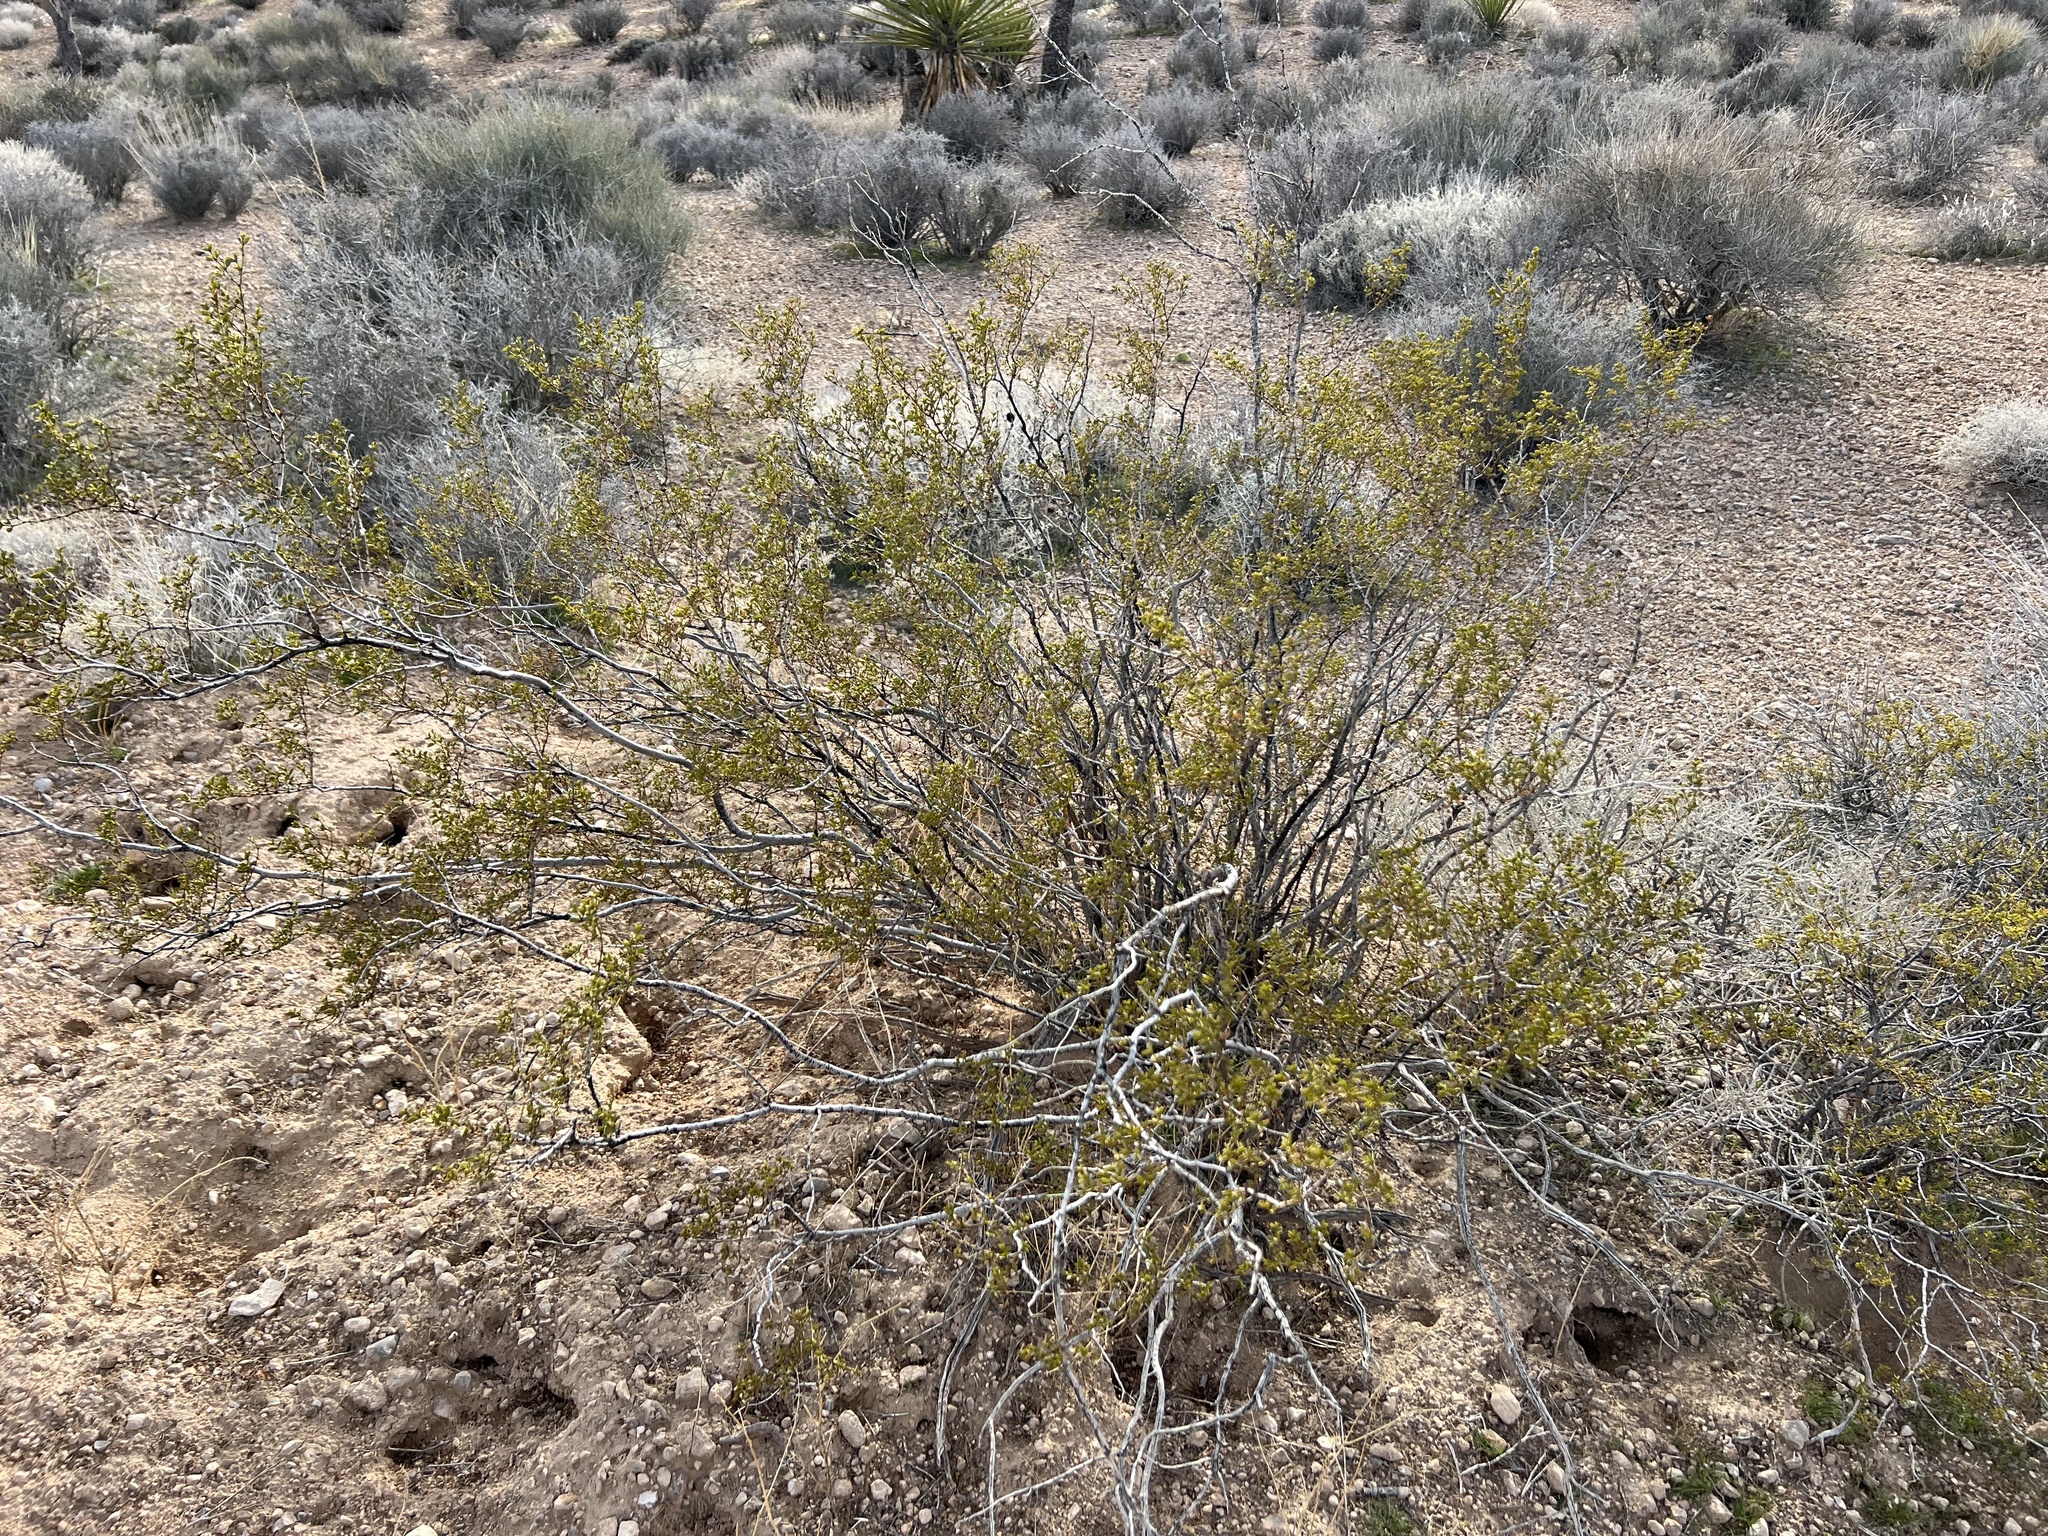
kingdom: Plantae
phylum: Tracheophyta
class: Magnoliopsida
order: Zygophyllales
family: Zygophyllaceae
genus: Larrea
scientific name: Larrea tridentata
